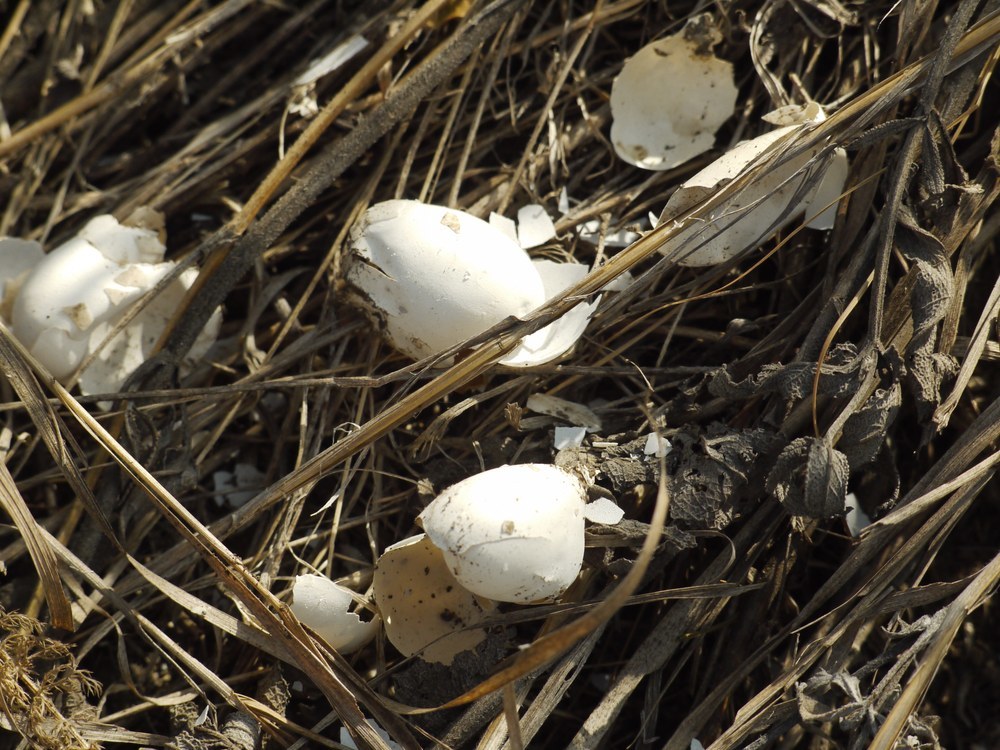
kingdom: Animalia
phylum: Chordata
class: Testudines
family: Emydidae
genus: Emys
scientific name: Emys orbicularis
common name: European pond turtle
